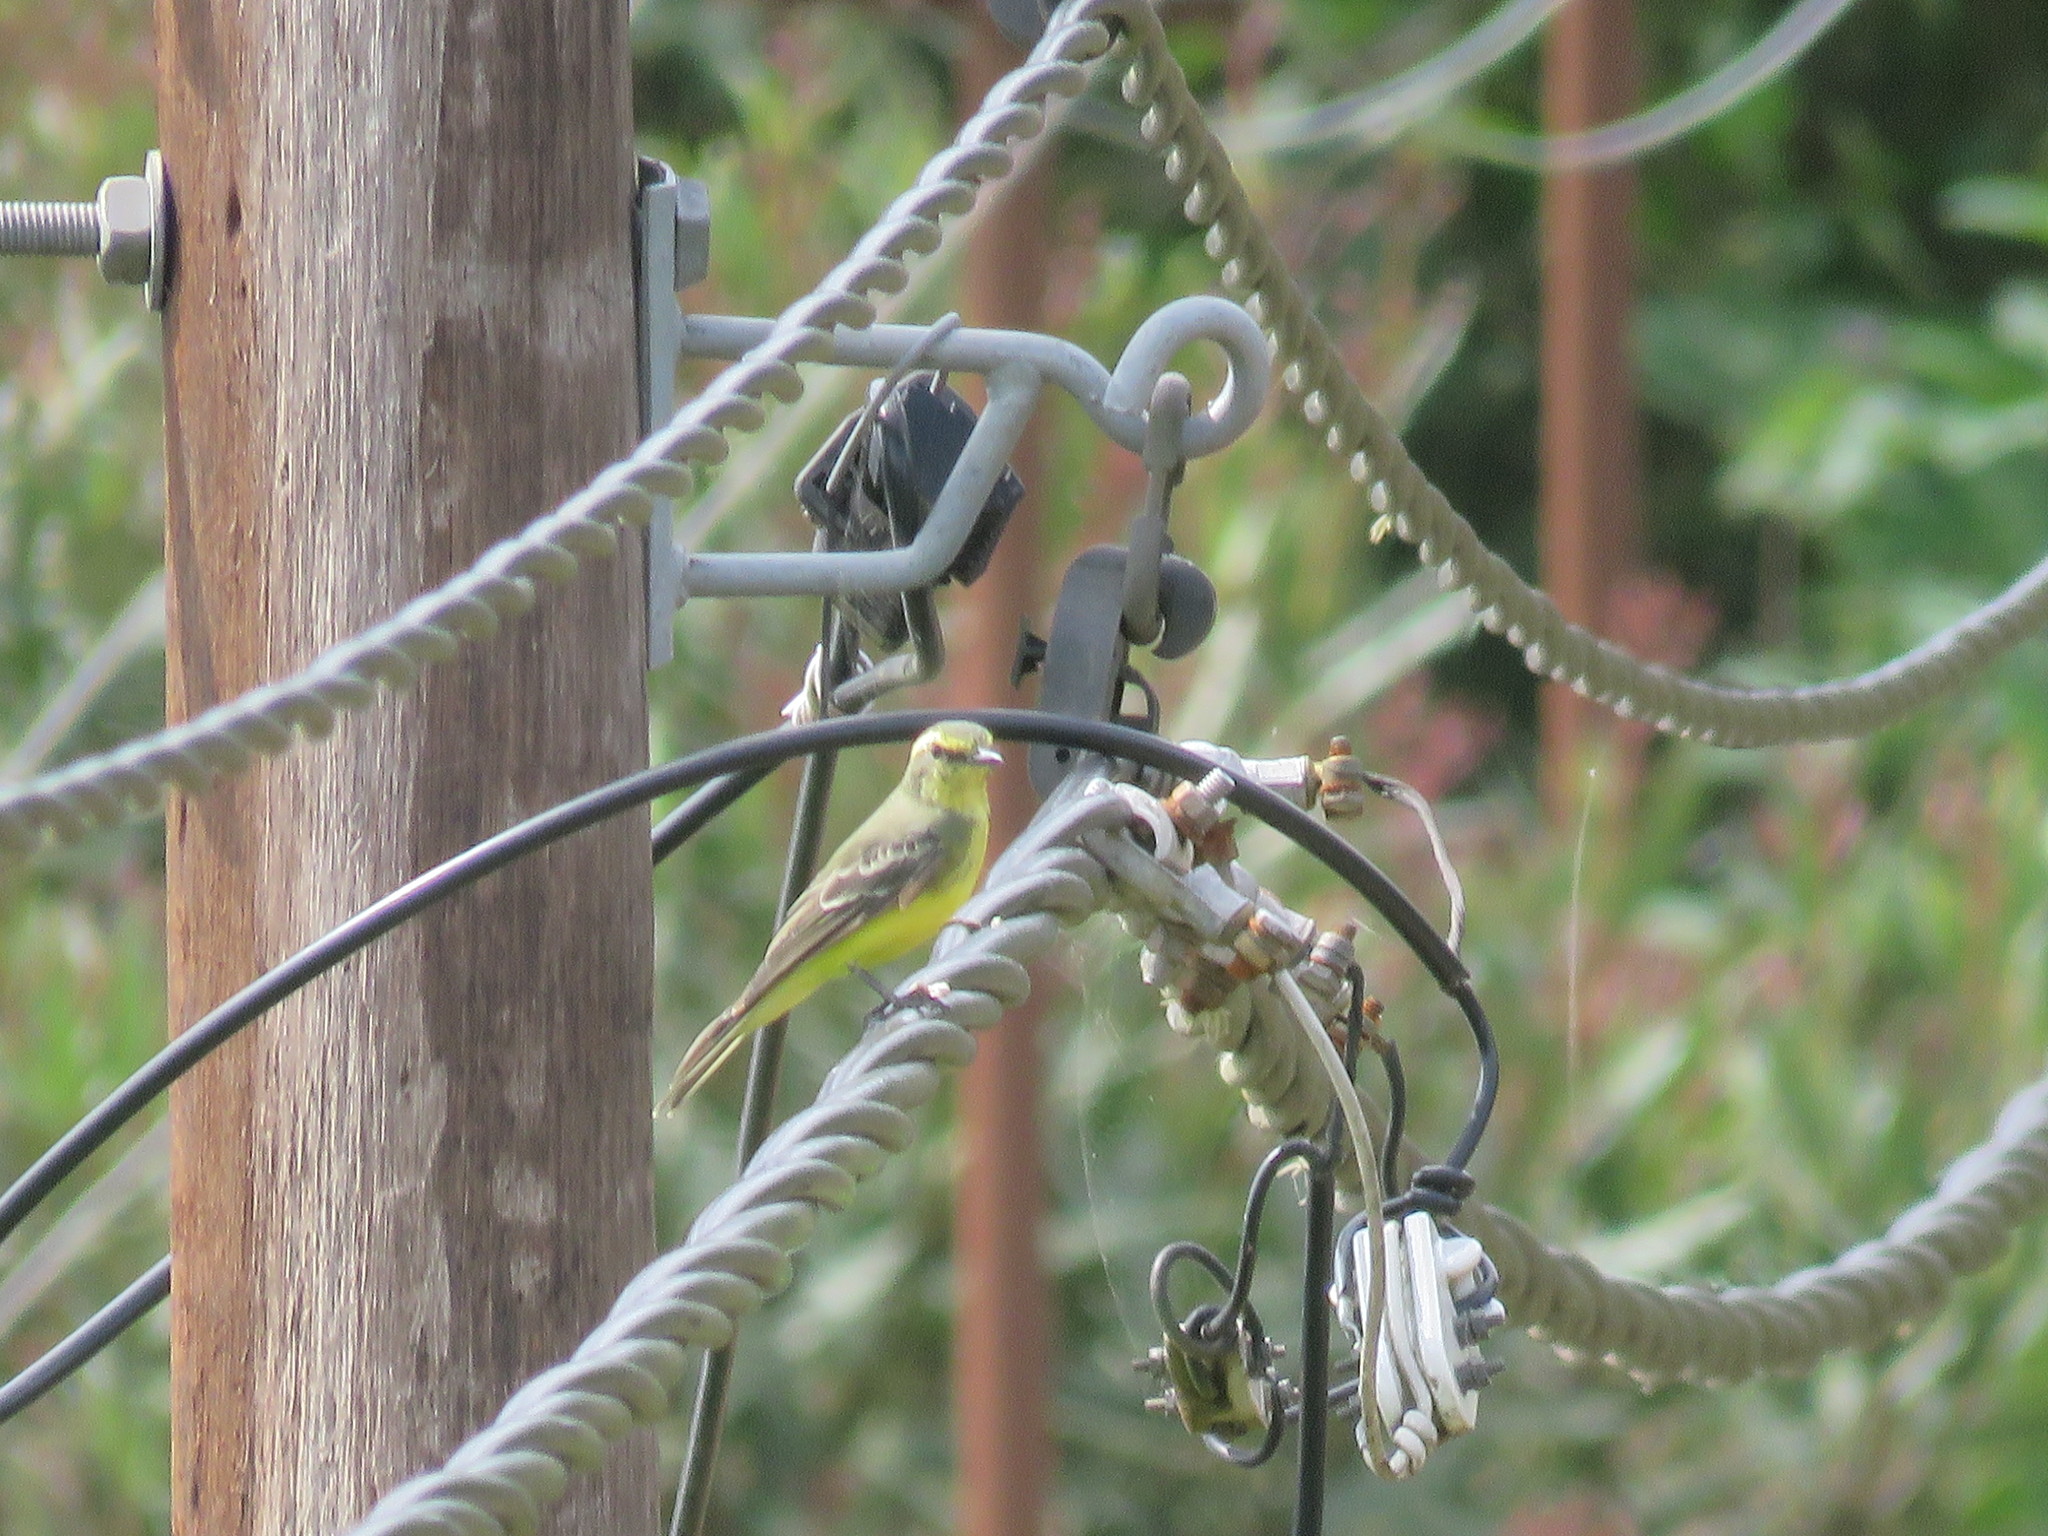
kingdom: Animalia
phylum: Chordata
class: Aves
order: Passeriformes
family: Tyrannidae
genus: Satrapa
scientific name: Satrapa icterophrys
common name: Yellow-browed tyrant
